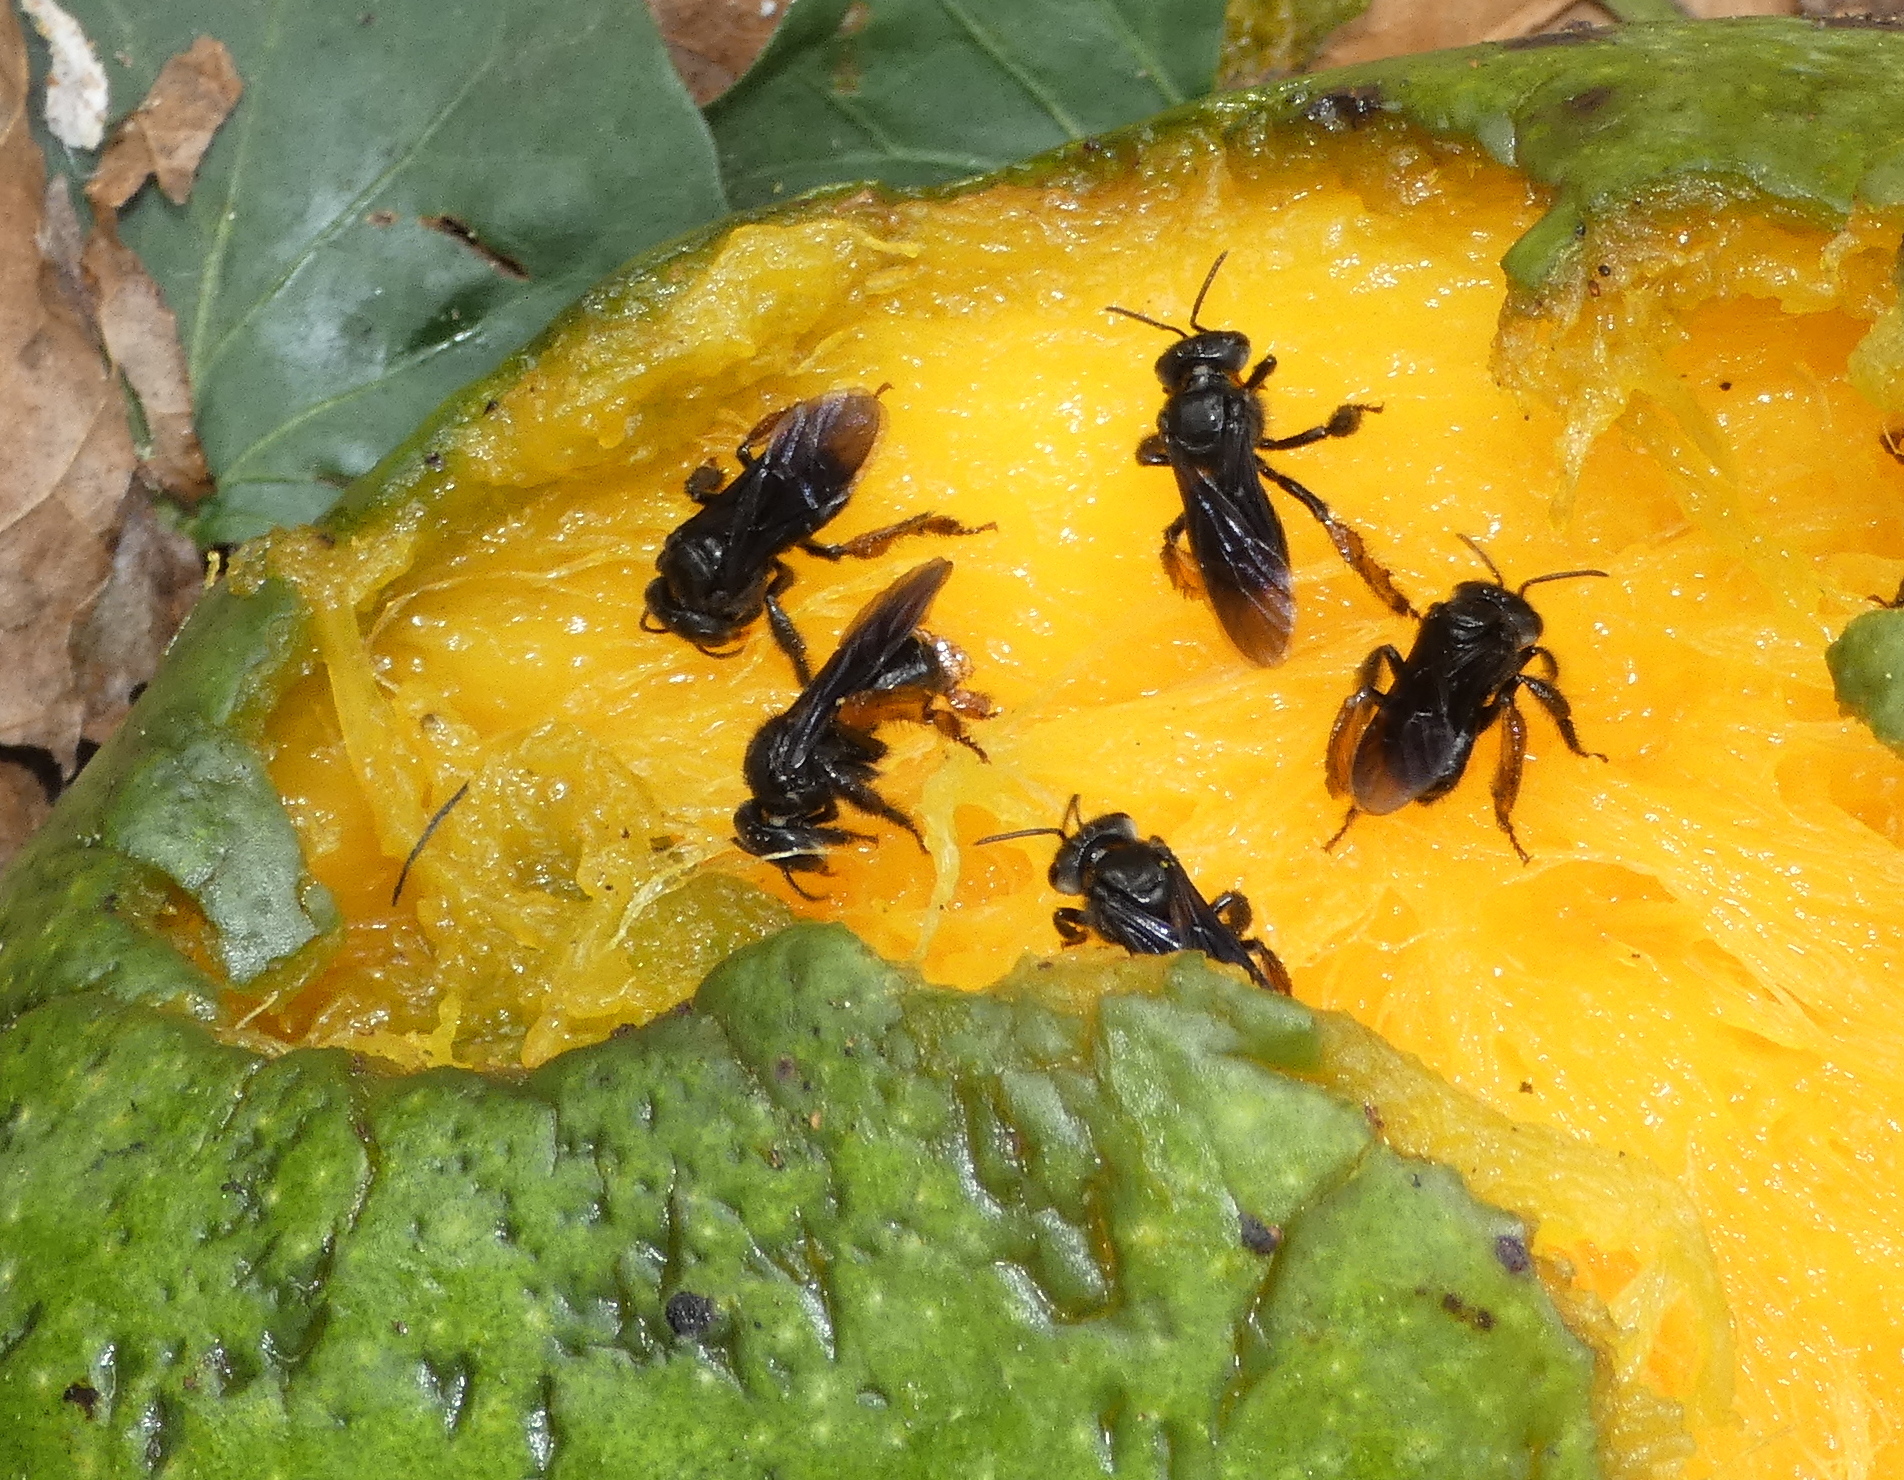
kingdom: Animalia
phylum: Arthropoda
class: Insecta
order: Hymenoptera
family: Apidae
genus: Trigona
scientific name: Trigona spinipes
